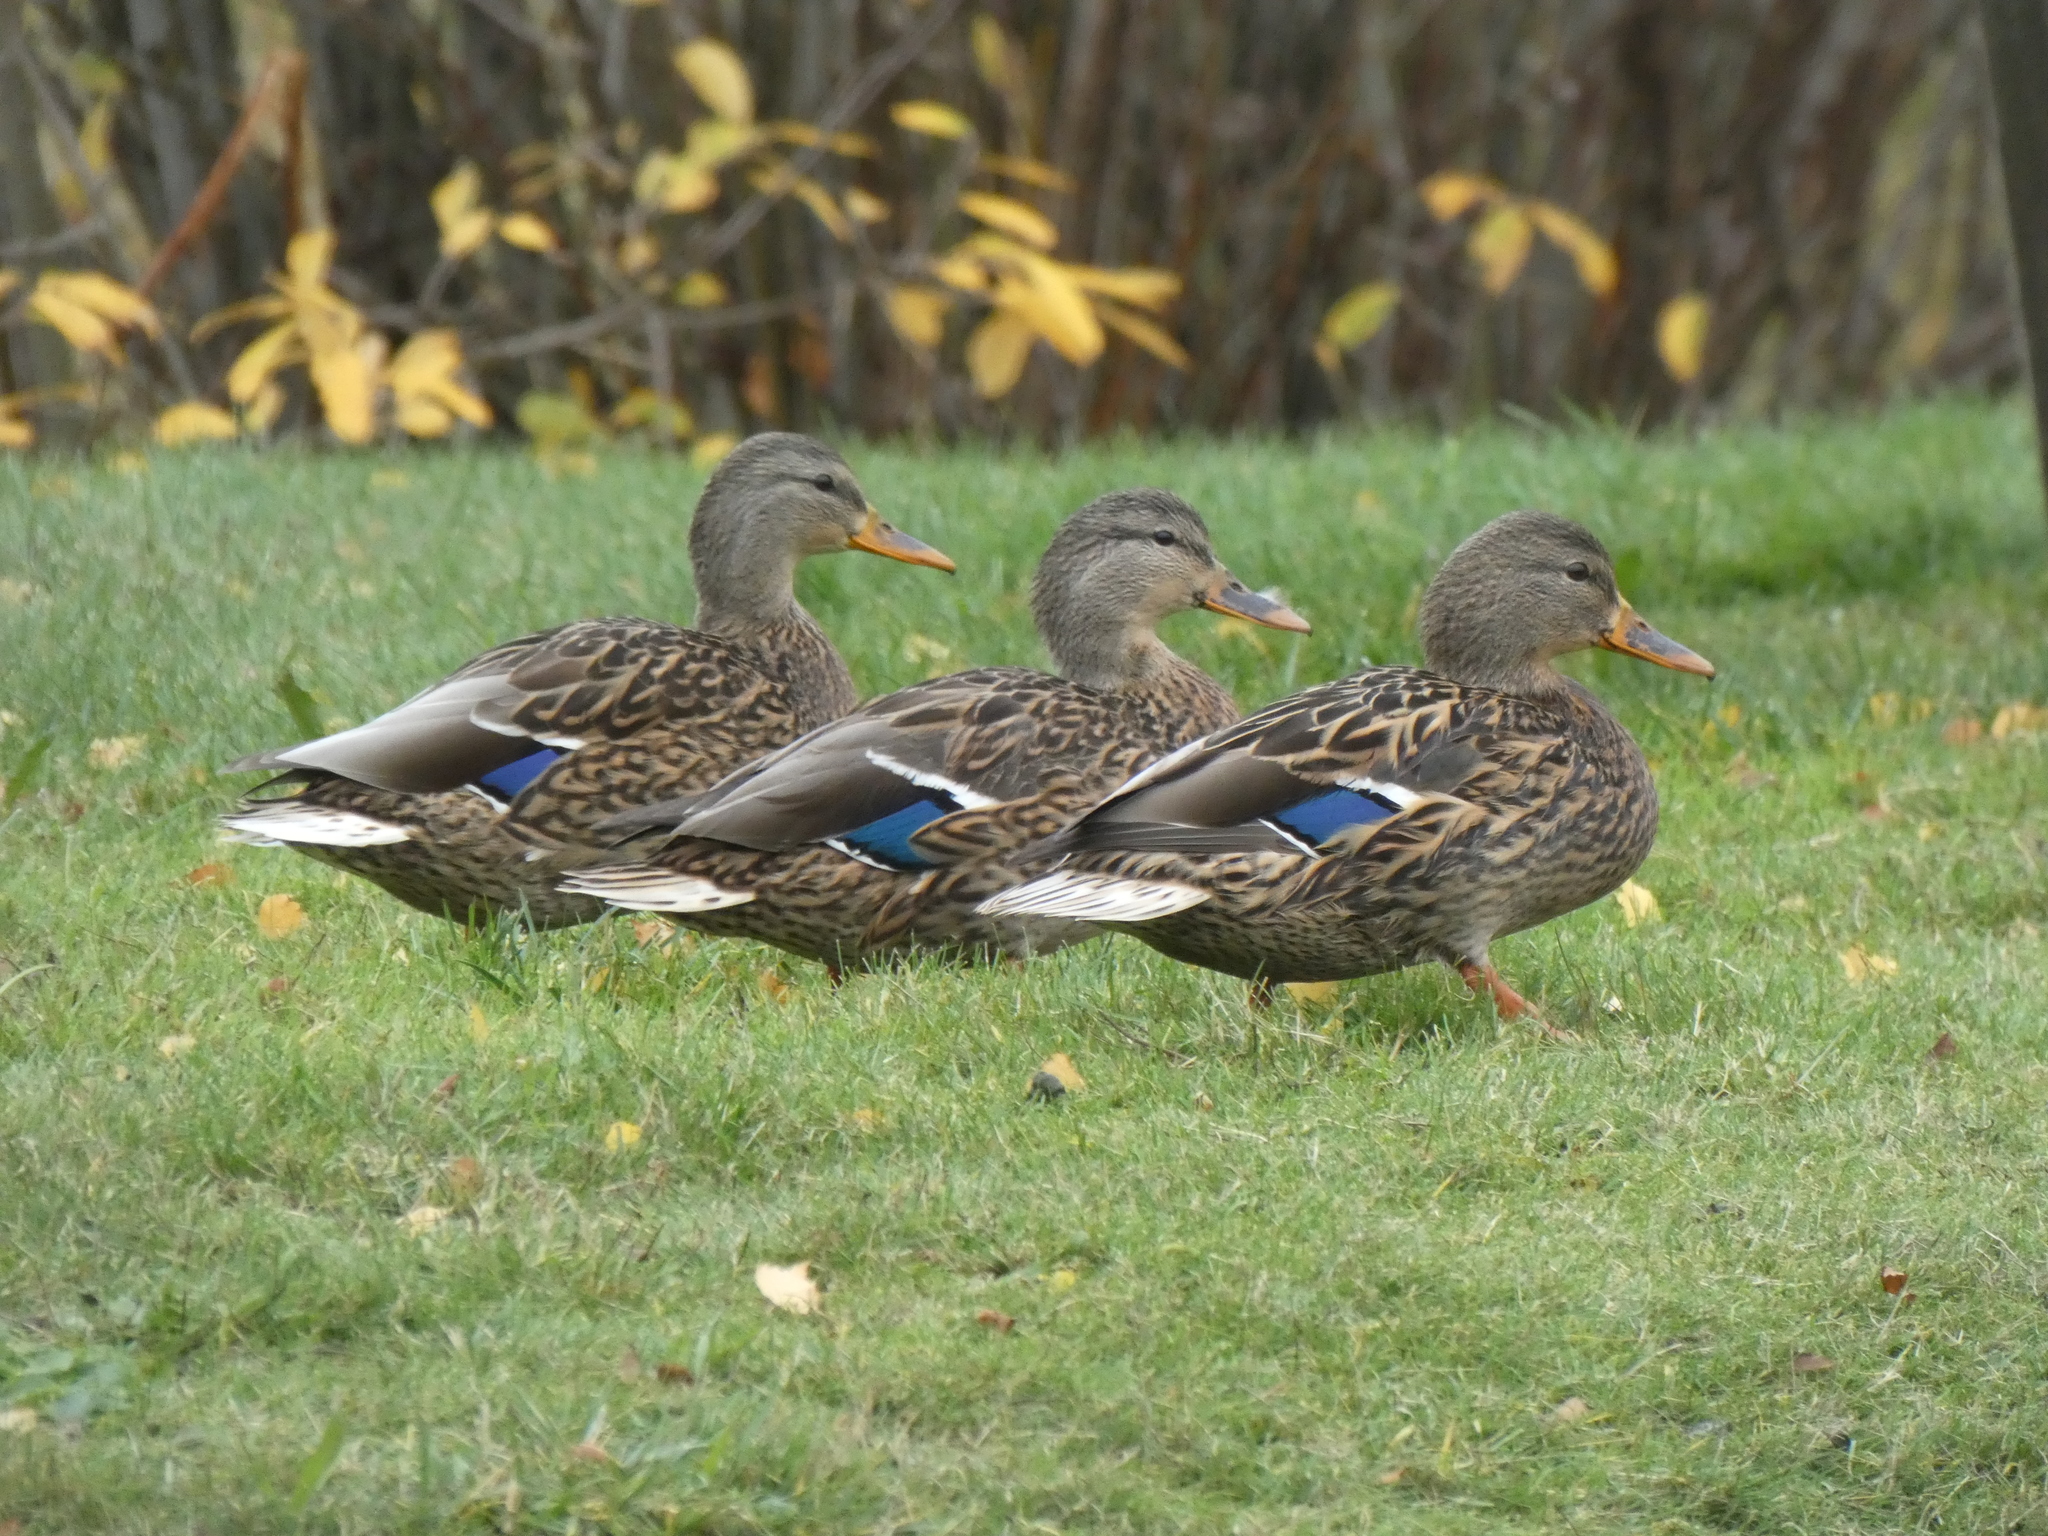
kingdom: Animalia
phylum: Chordata
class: Aves
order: Anseriformes
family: Anatidae
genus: Anas
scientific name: Anas platyrhynchos
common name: Mallard
